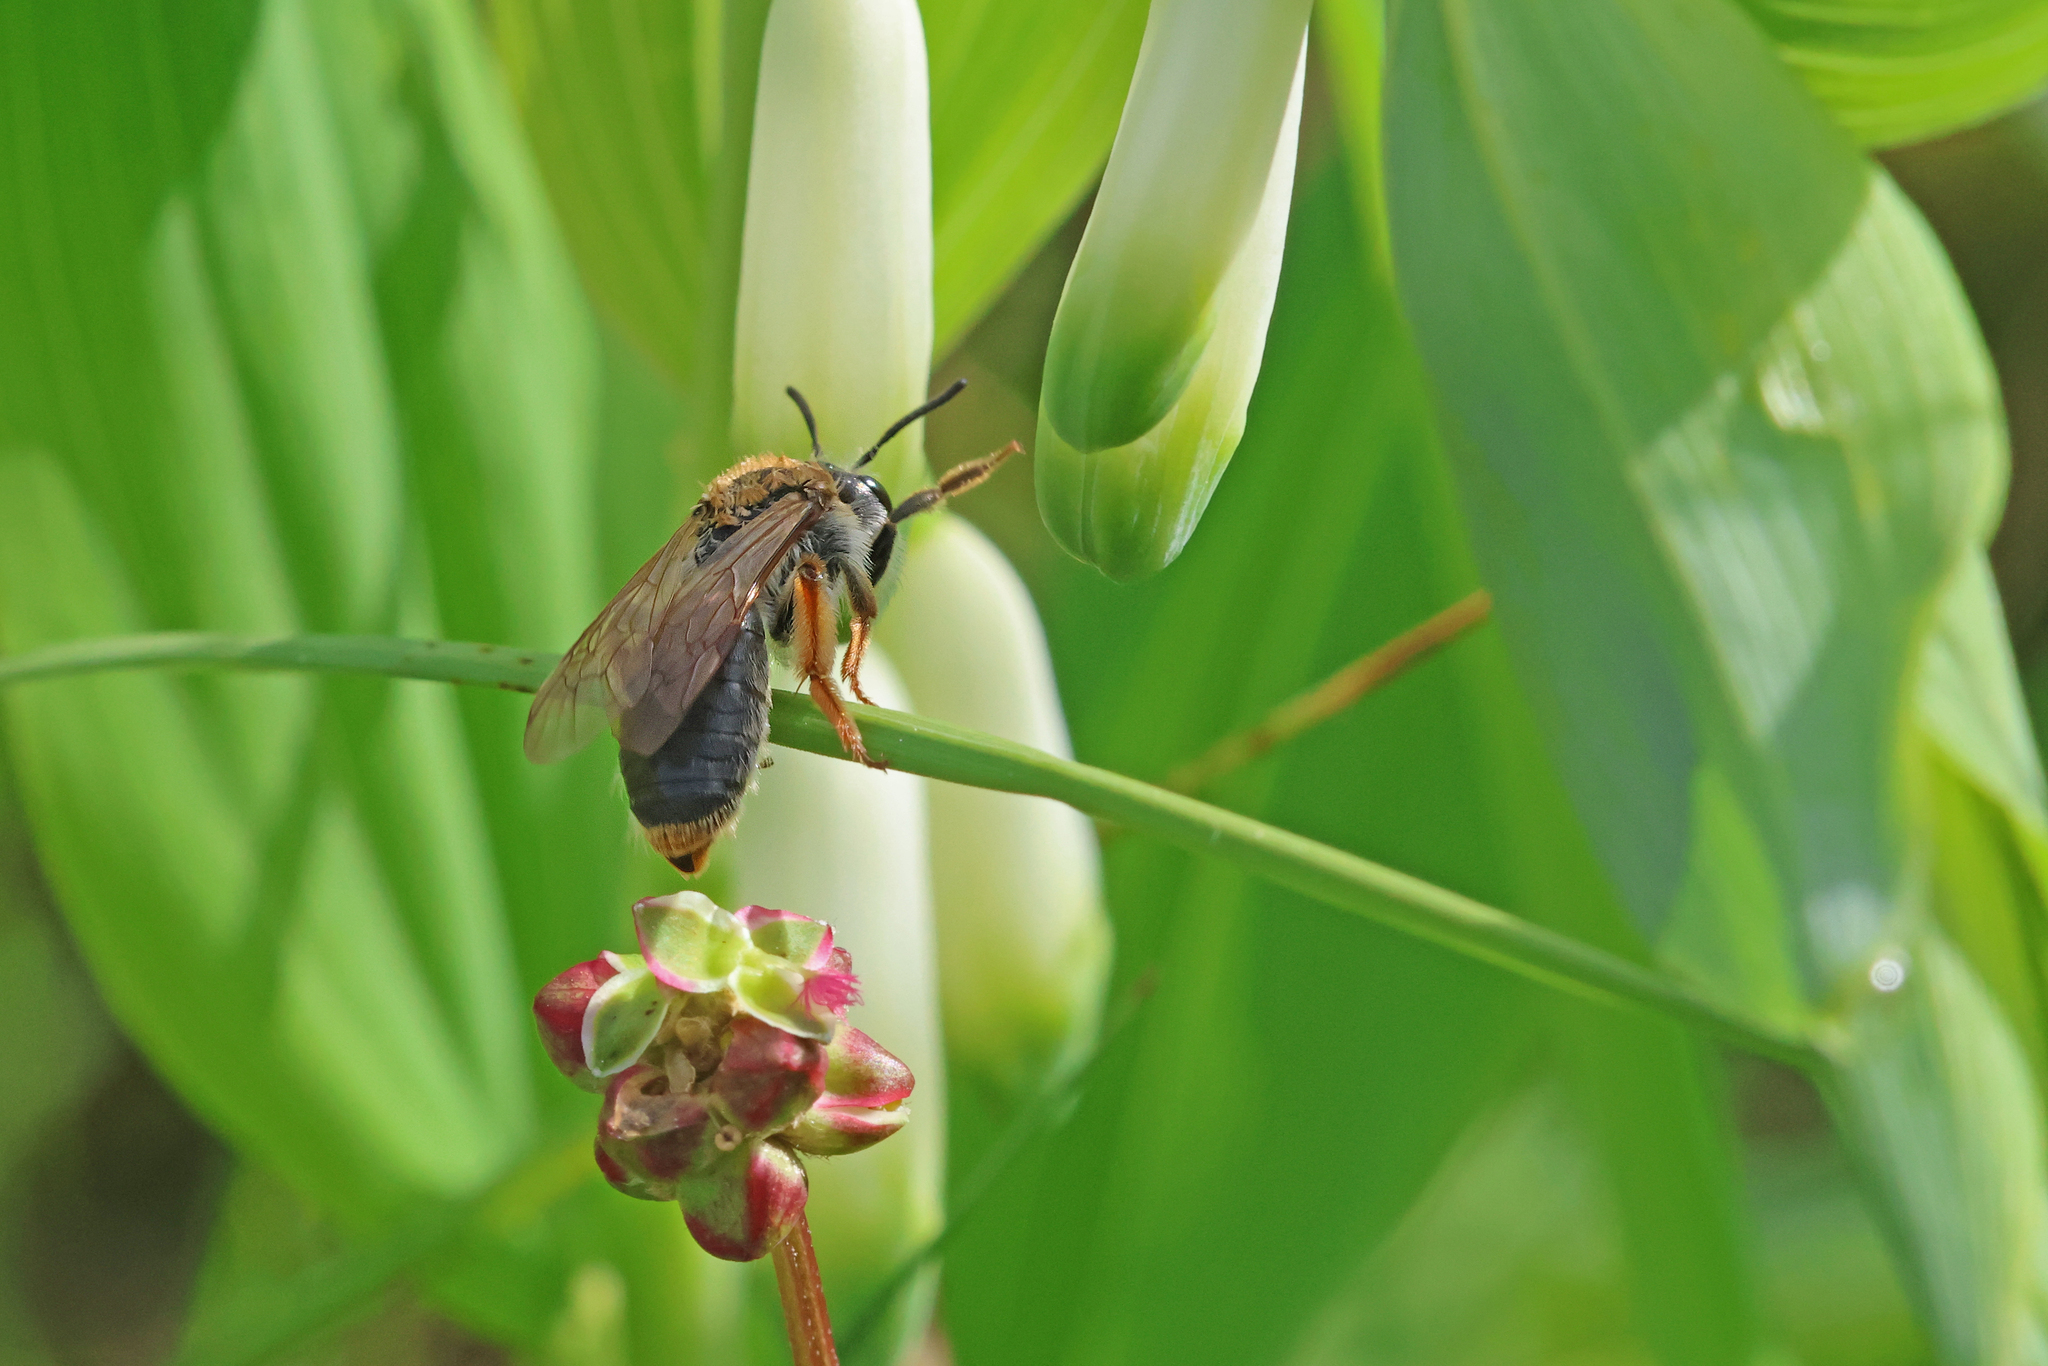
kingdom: Animalia
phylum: Arthropoda
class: Insecta
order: Hymenoptera
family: Andrenidae
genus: Andrena
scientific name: Andrena haemorrhoa
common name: Early mining bee
